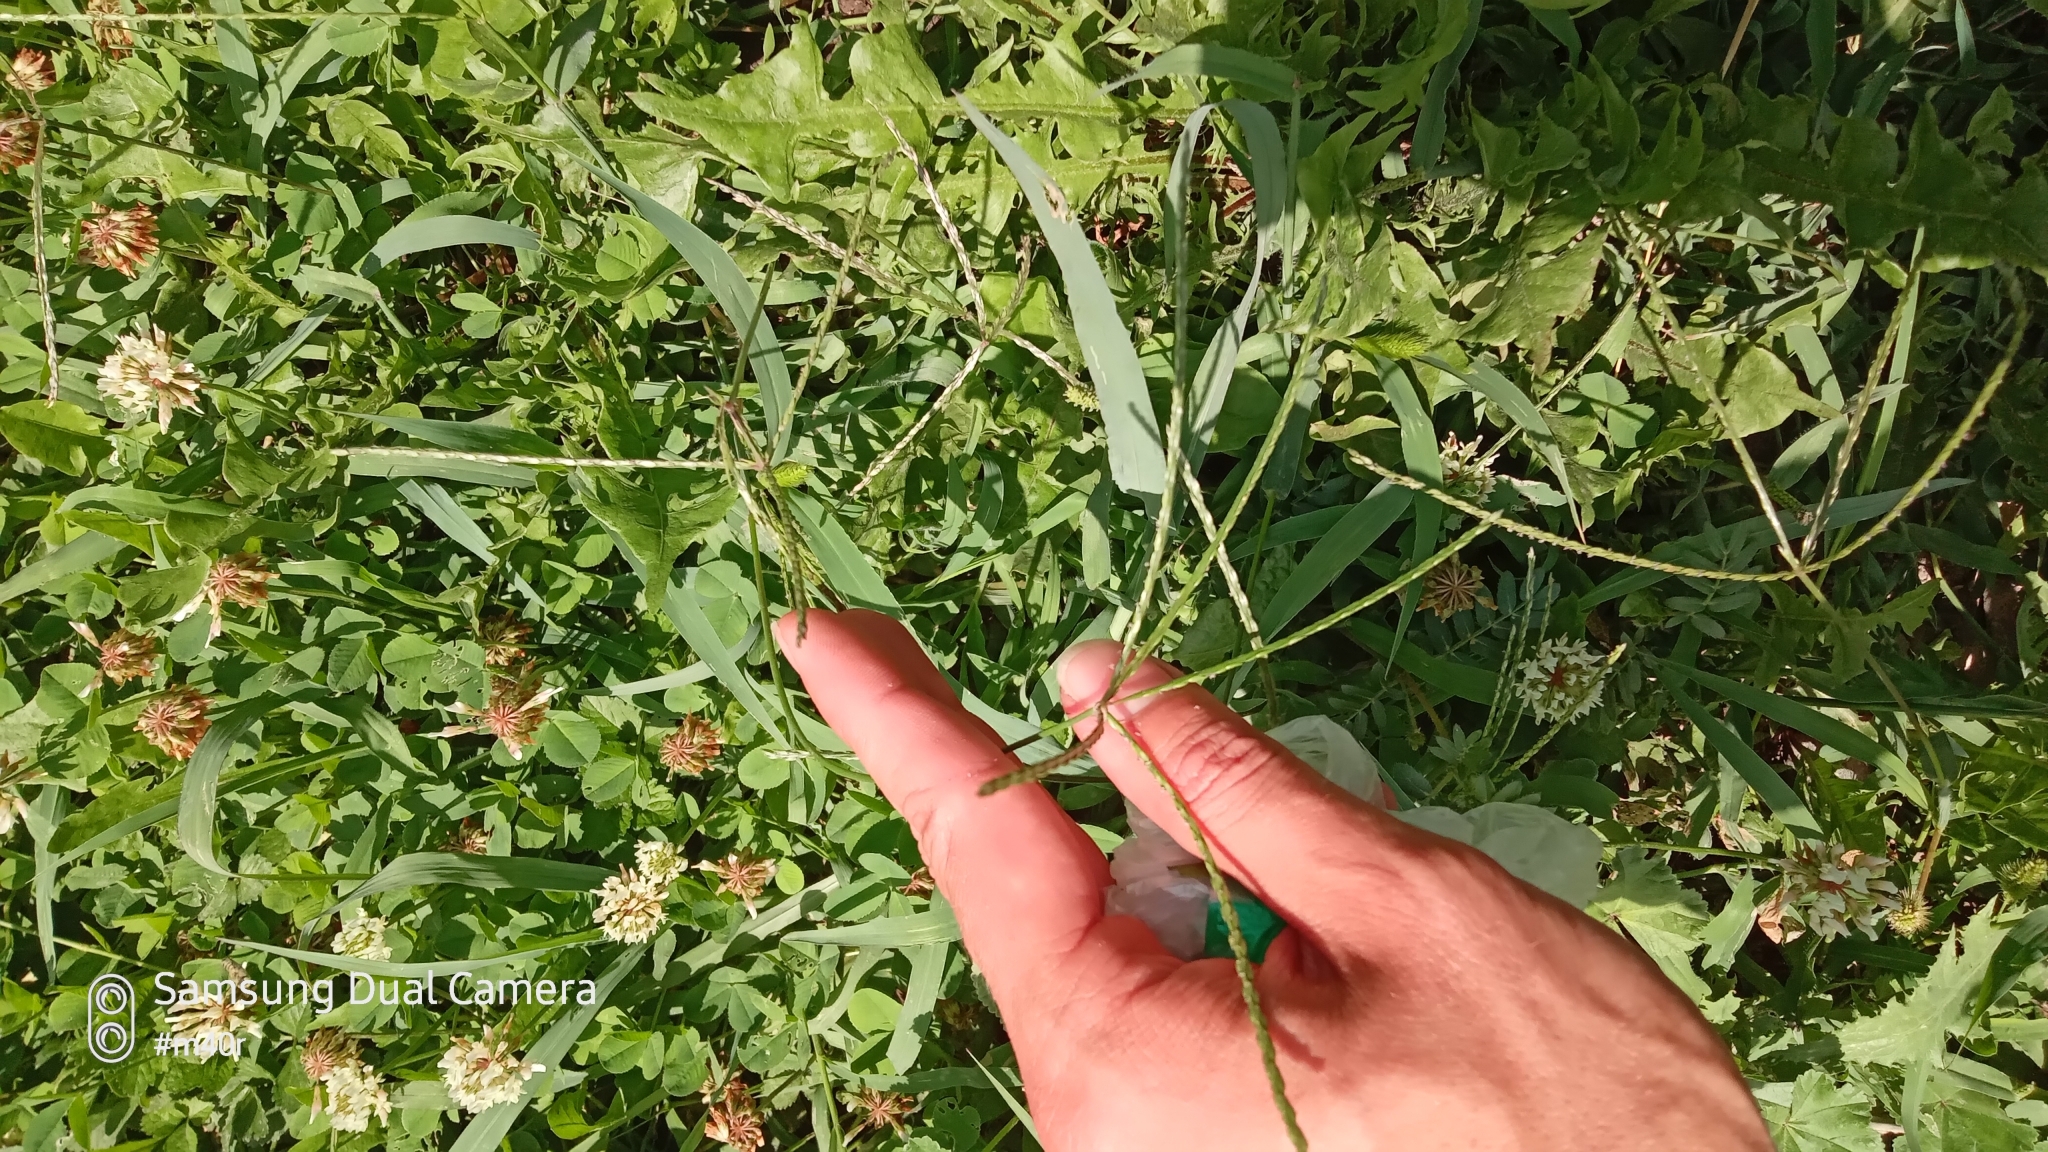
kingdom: Plantae
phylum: Tracheophyta
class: Liliopsida
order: Poales
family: Poaceae
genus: Cynodon
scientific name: Cynodon dactylon
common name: Bermuda grass
